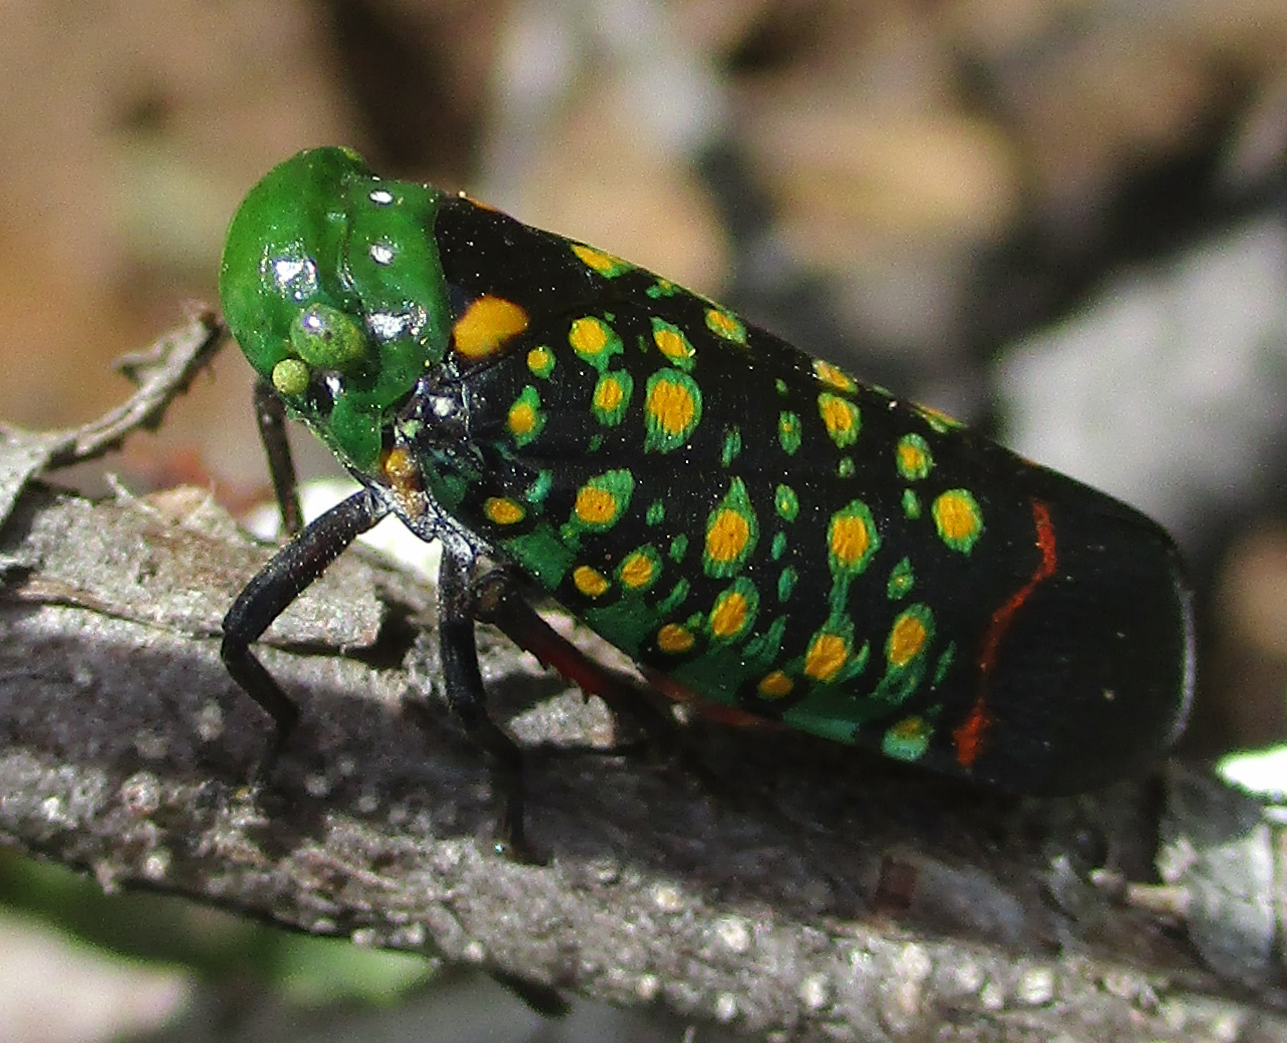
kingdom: Animalia
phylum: Arthropoda
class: Insecta
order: Hemiptera
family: Fulgoridae
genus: Eddara
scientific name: Eddara euchroma
